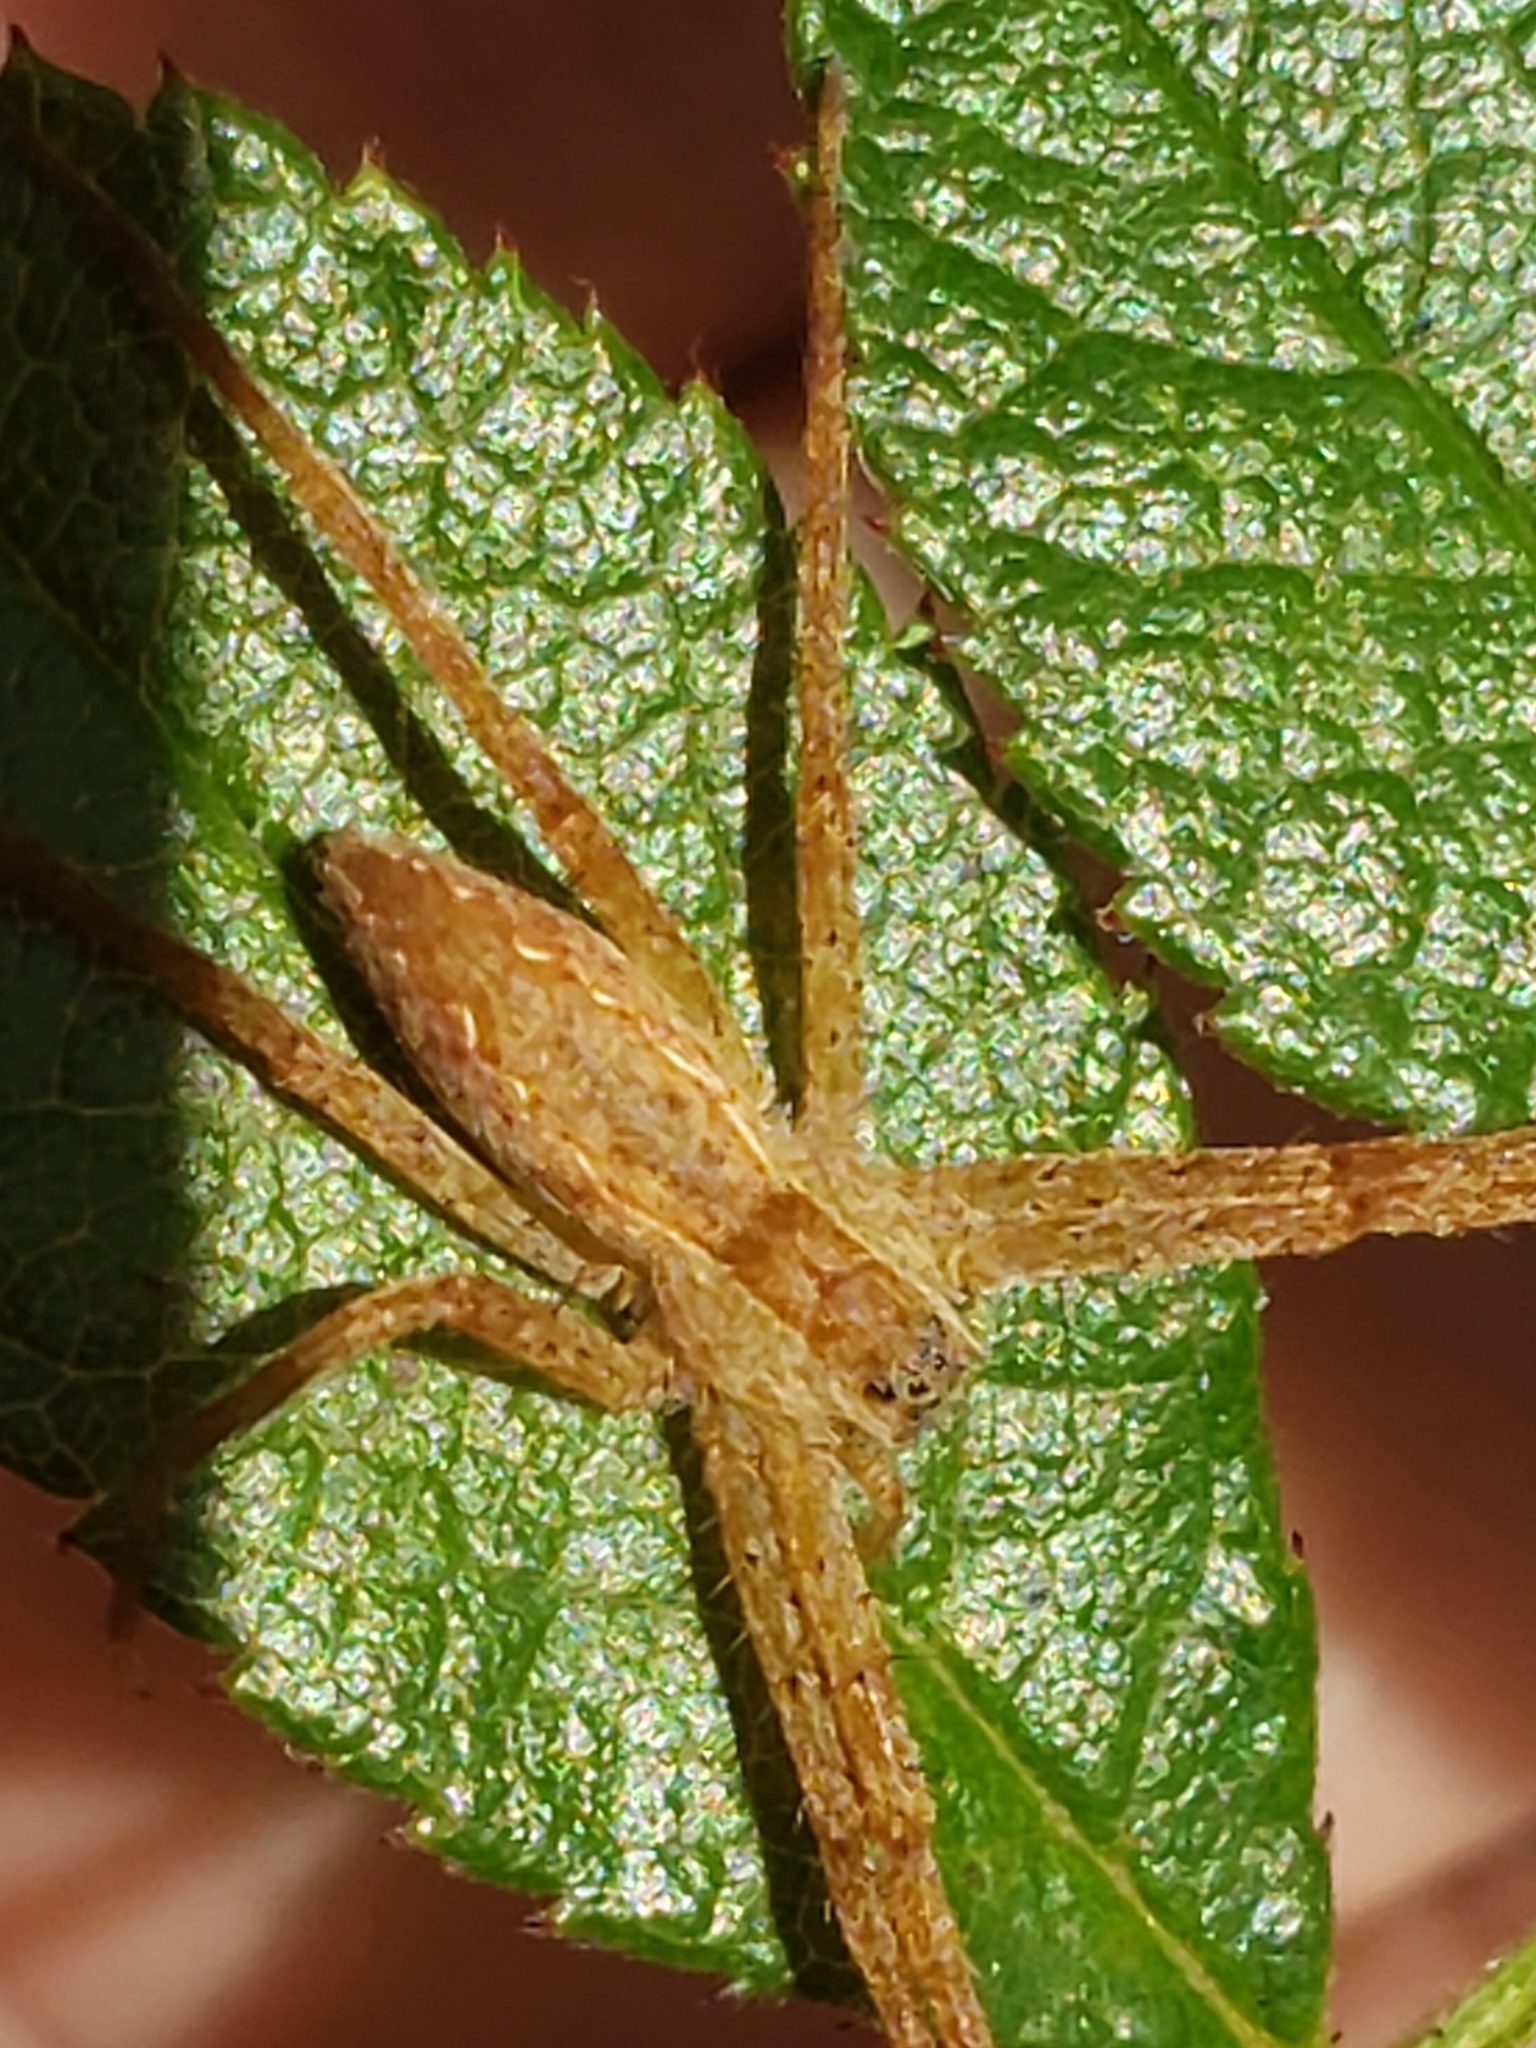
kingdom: Animalia
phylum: Arthropoda
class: Arachnida
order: Araneae
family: Pisauridae
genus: Pisaurina
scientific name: Pisaurina mira
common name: American nursery web spider
